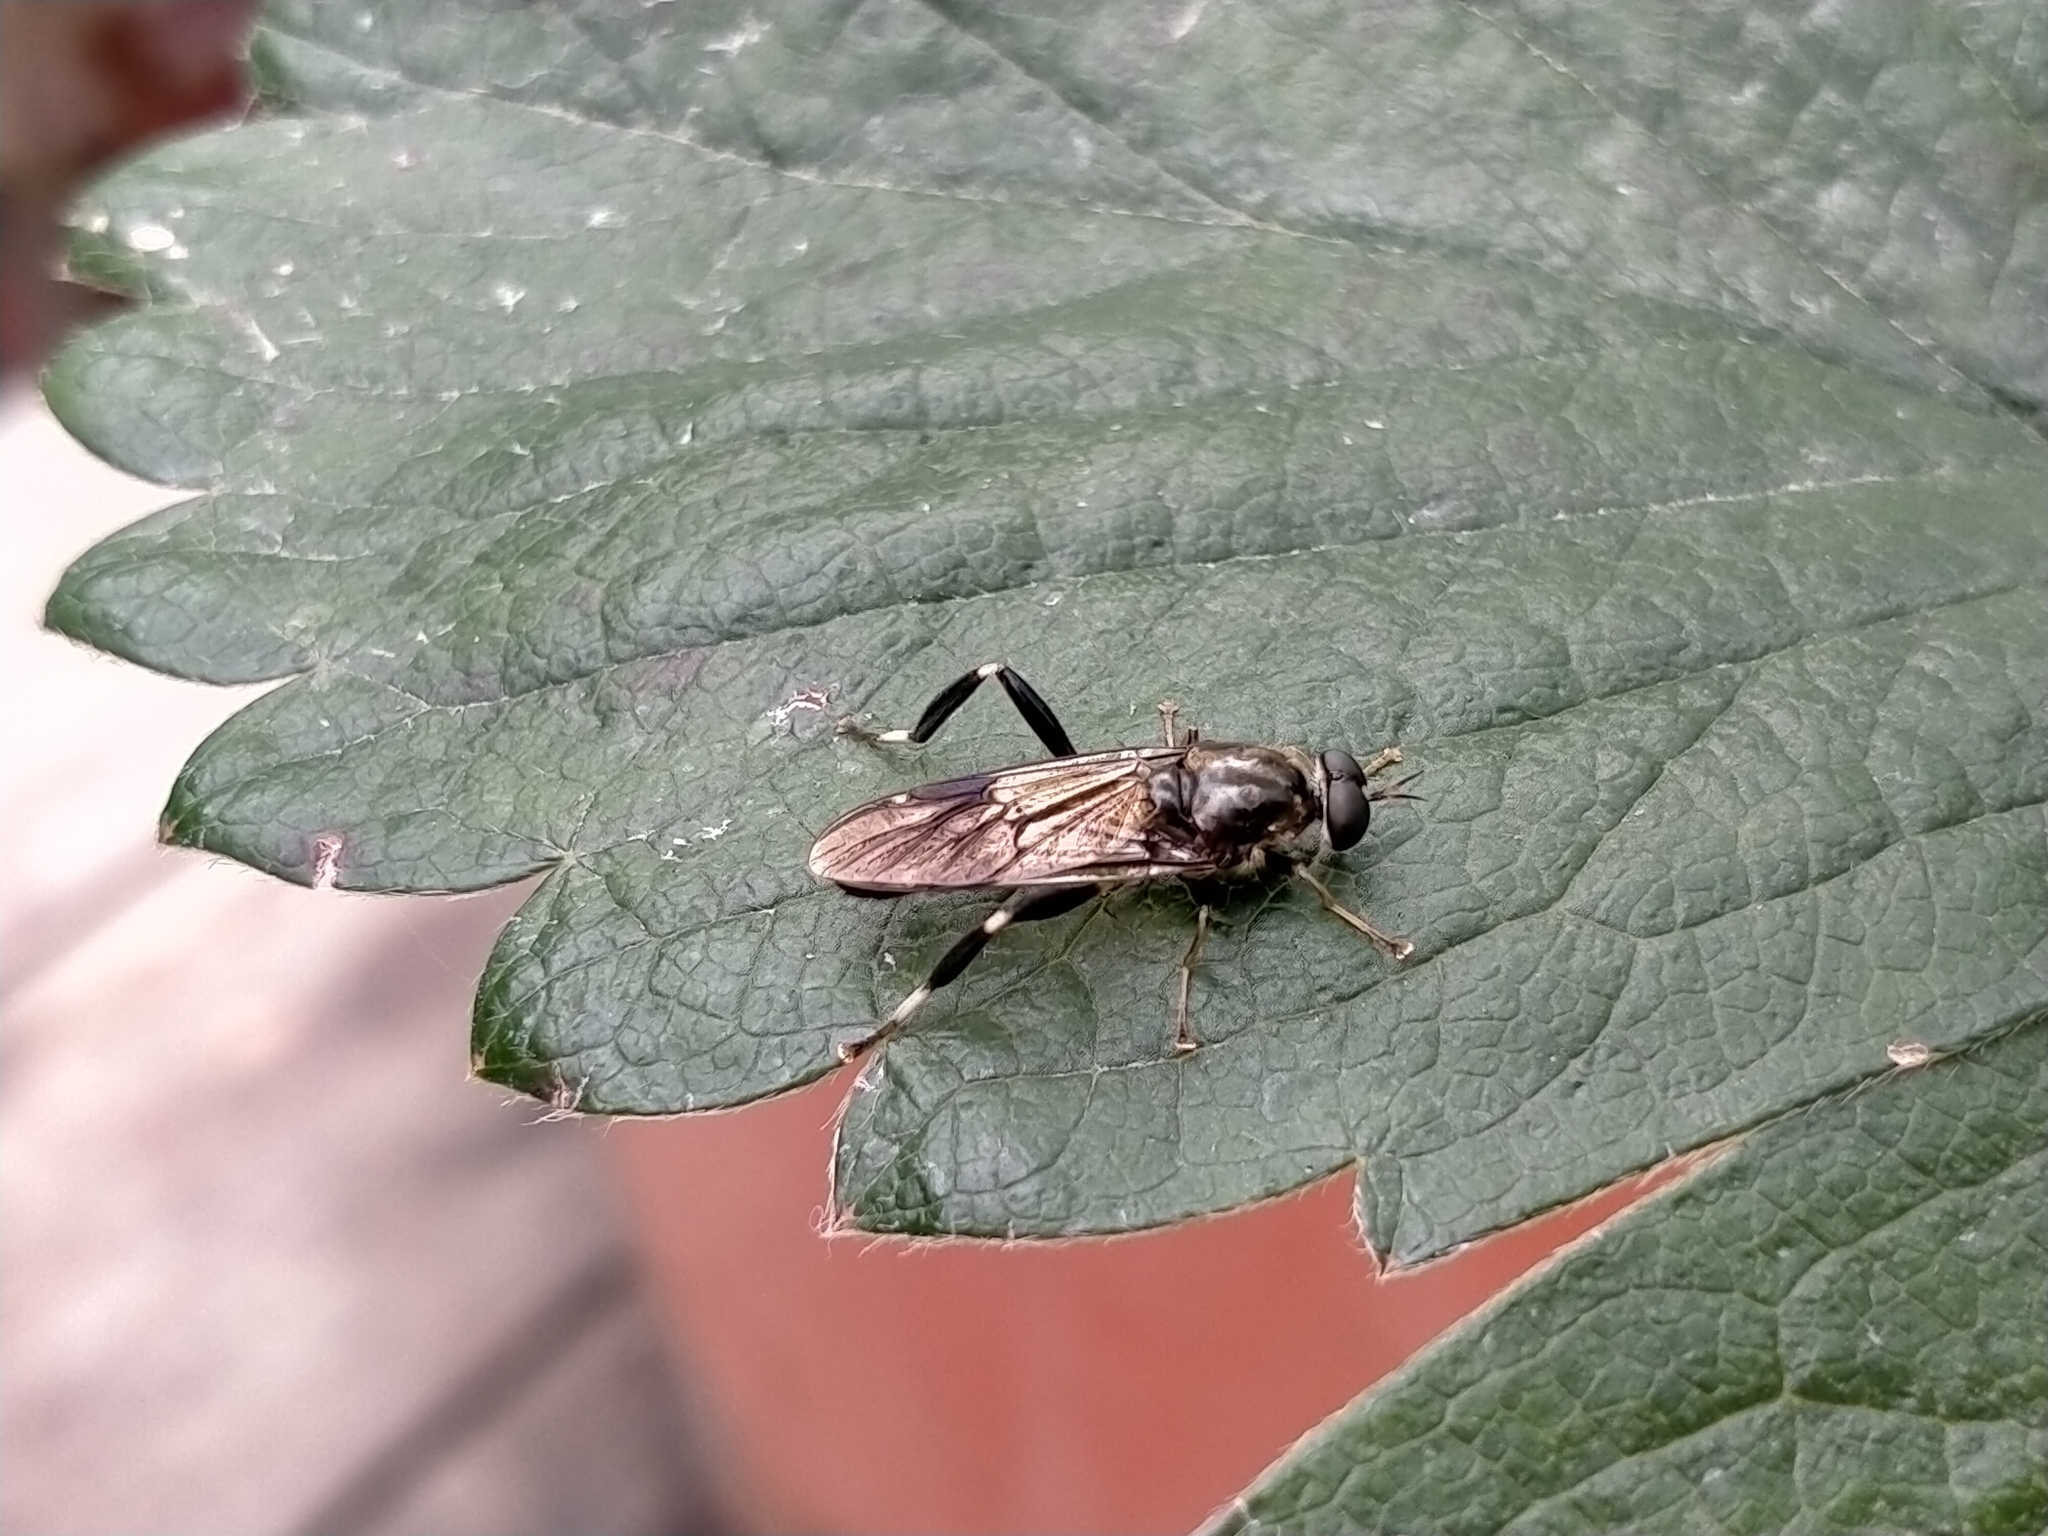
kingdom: Animalia
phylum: Arthropoda
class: Insecta
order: Diptera
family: Stratiomyidae
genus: Exaireta
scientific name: Exaireta spinigera
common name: Blue soldier fly
